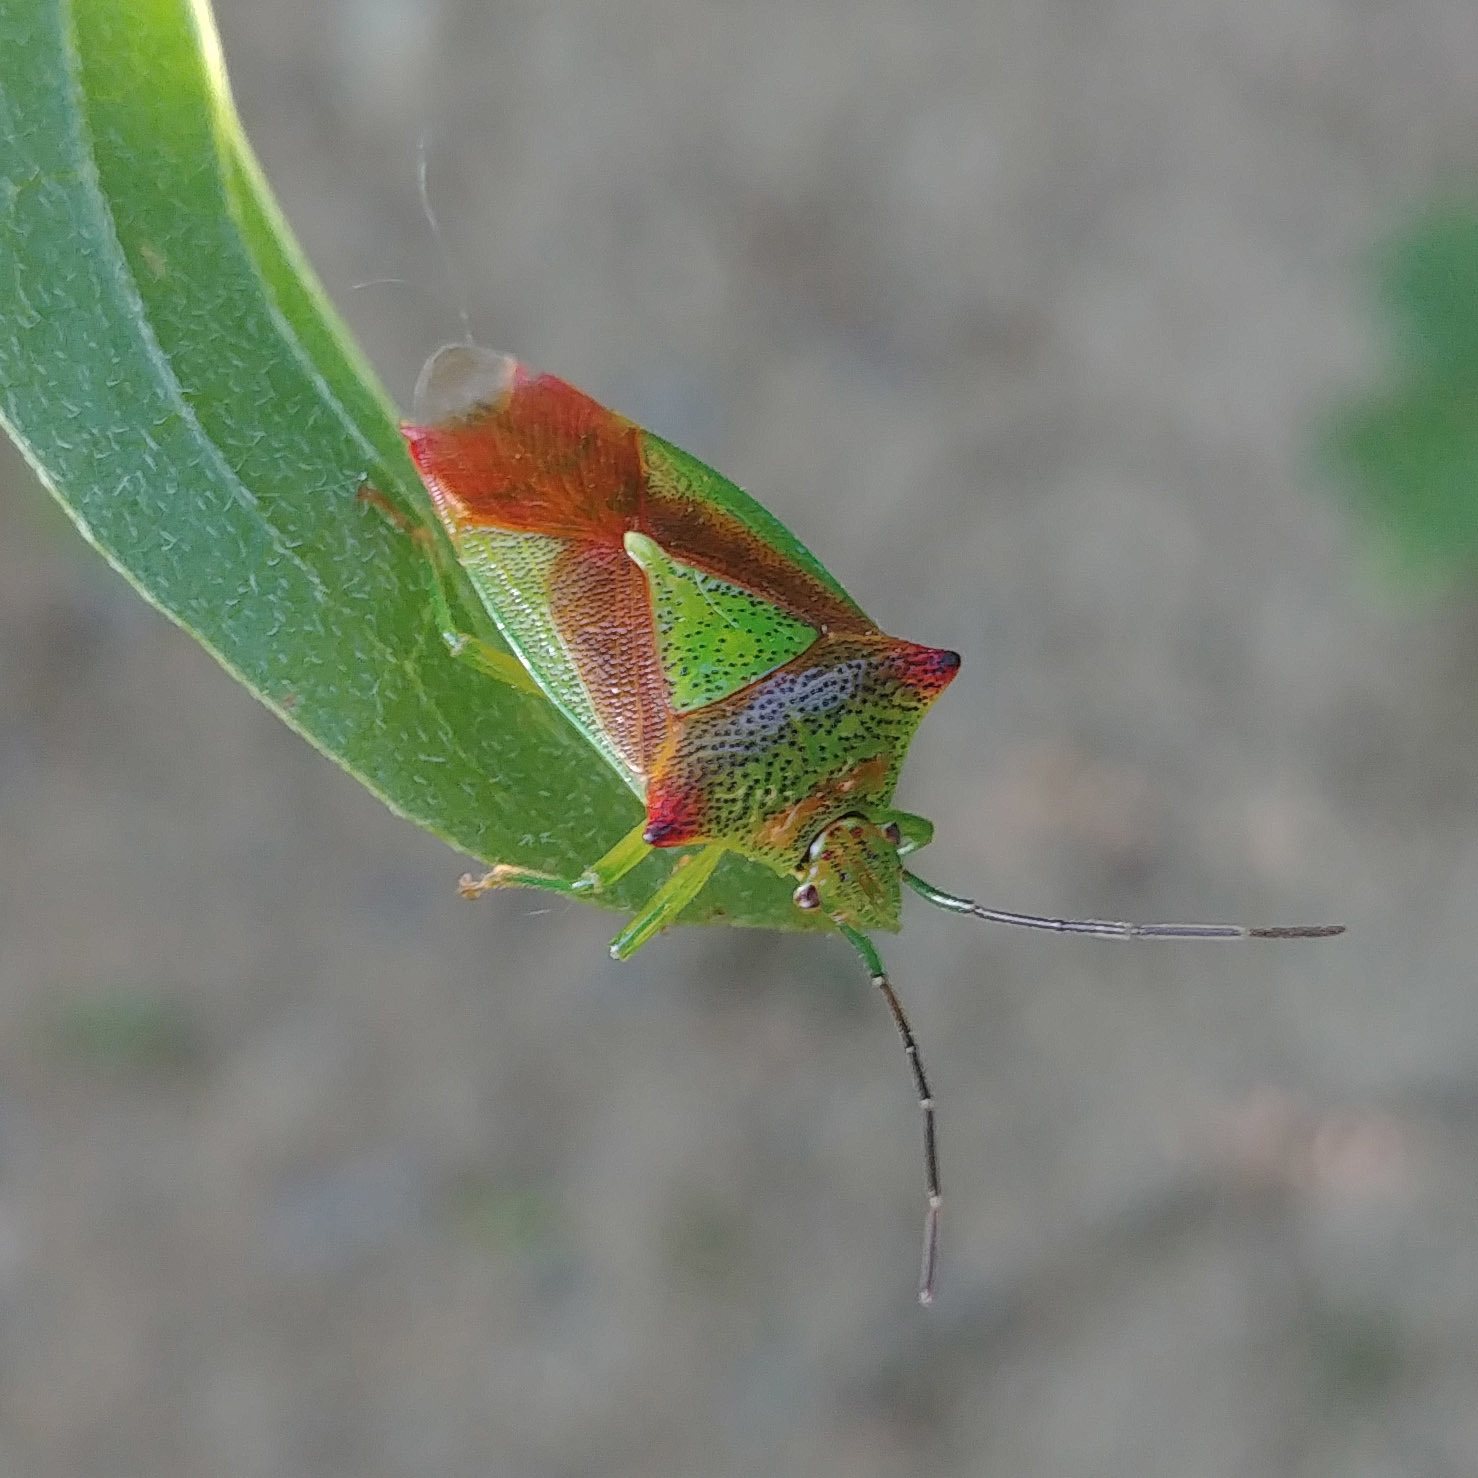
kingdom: Animalia
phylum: Arthropoda
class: Insecta
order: Hemiptera
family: Acanthosomatidae
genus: Acanthosoma
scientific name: Acanthosoma haemorrhoidale
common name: Hawthorn shieldbug
